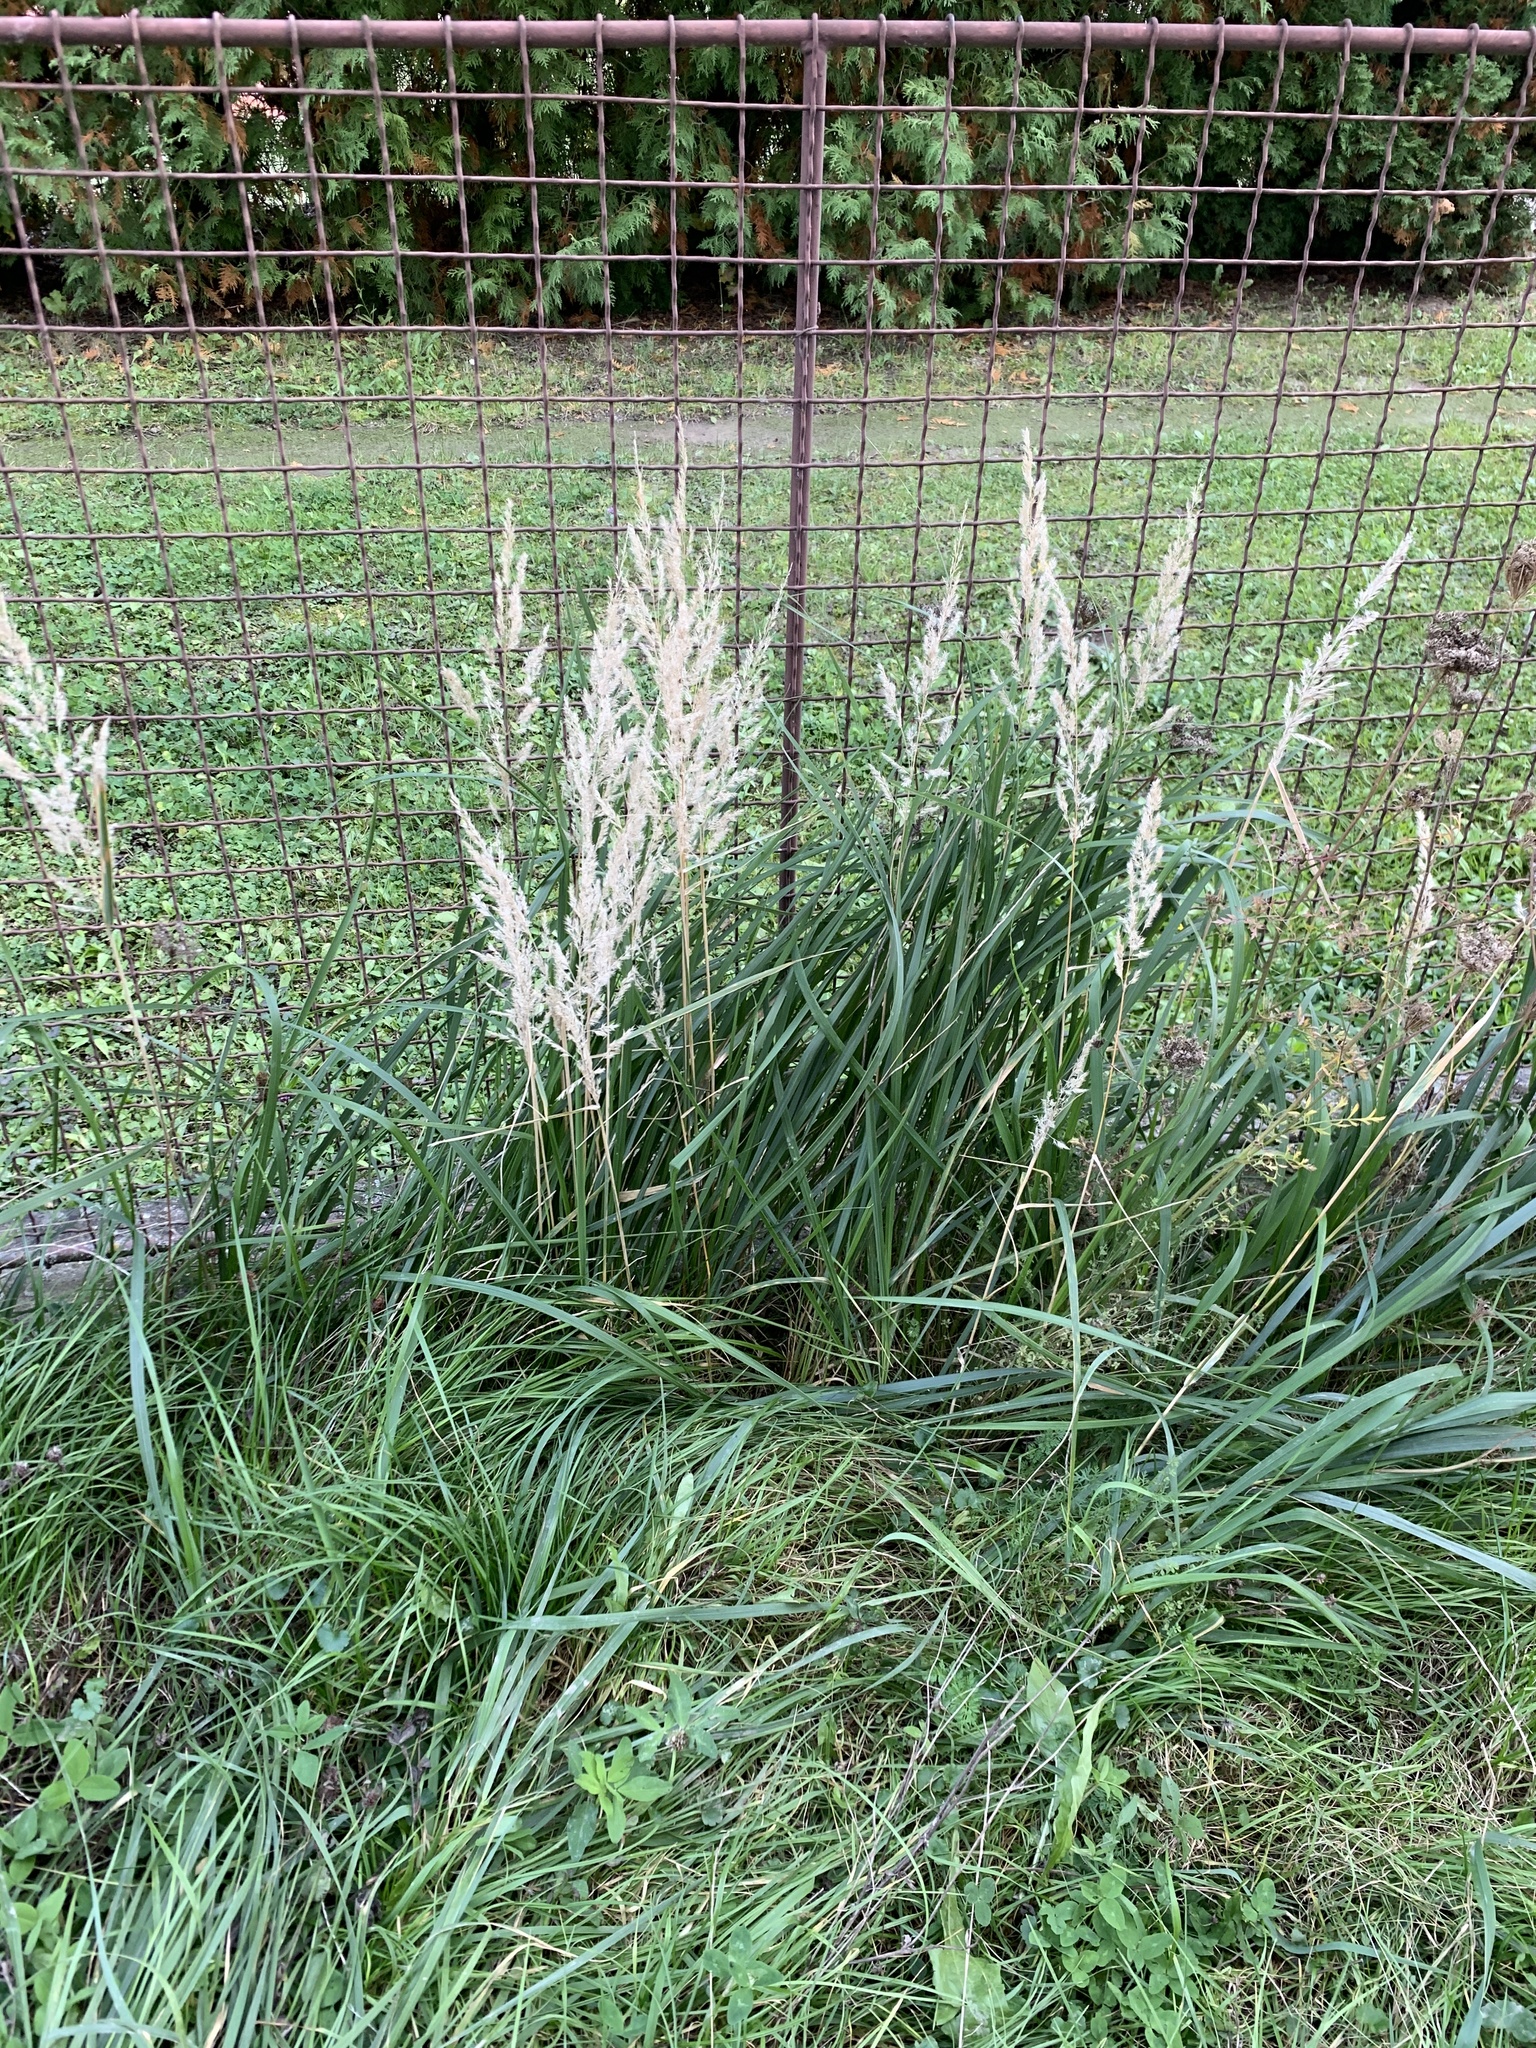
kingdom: Plantae
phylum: Tracheophyta
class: Liliopsida
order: Poales
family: Poaceae
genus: Calamagrostis
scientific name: Calamagrostis epigejos
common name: Wood small-reed
